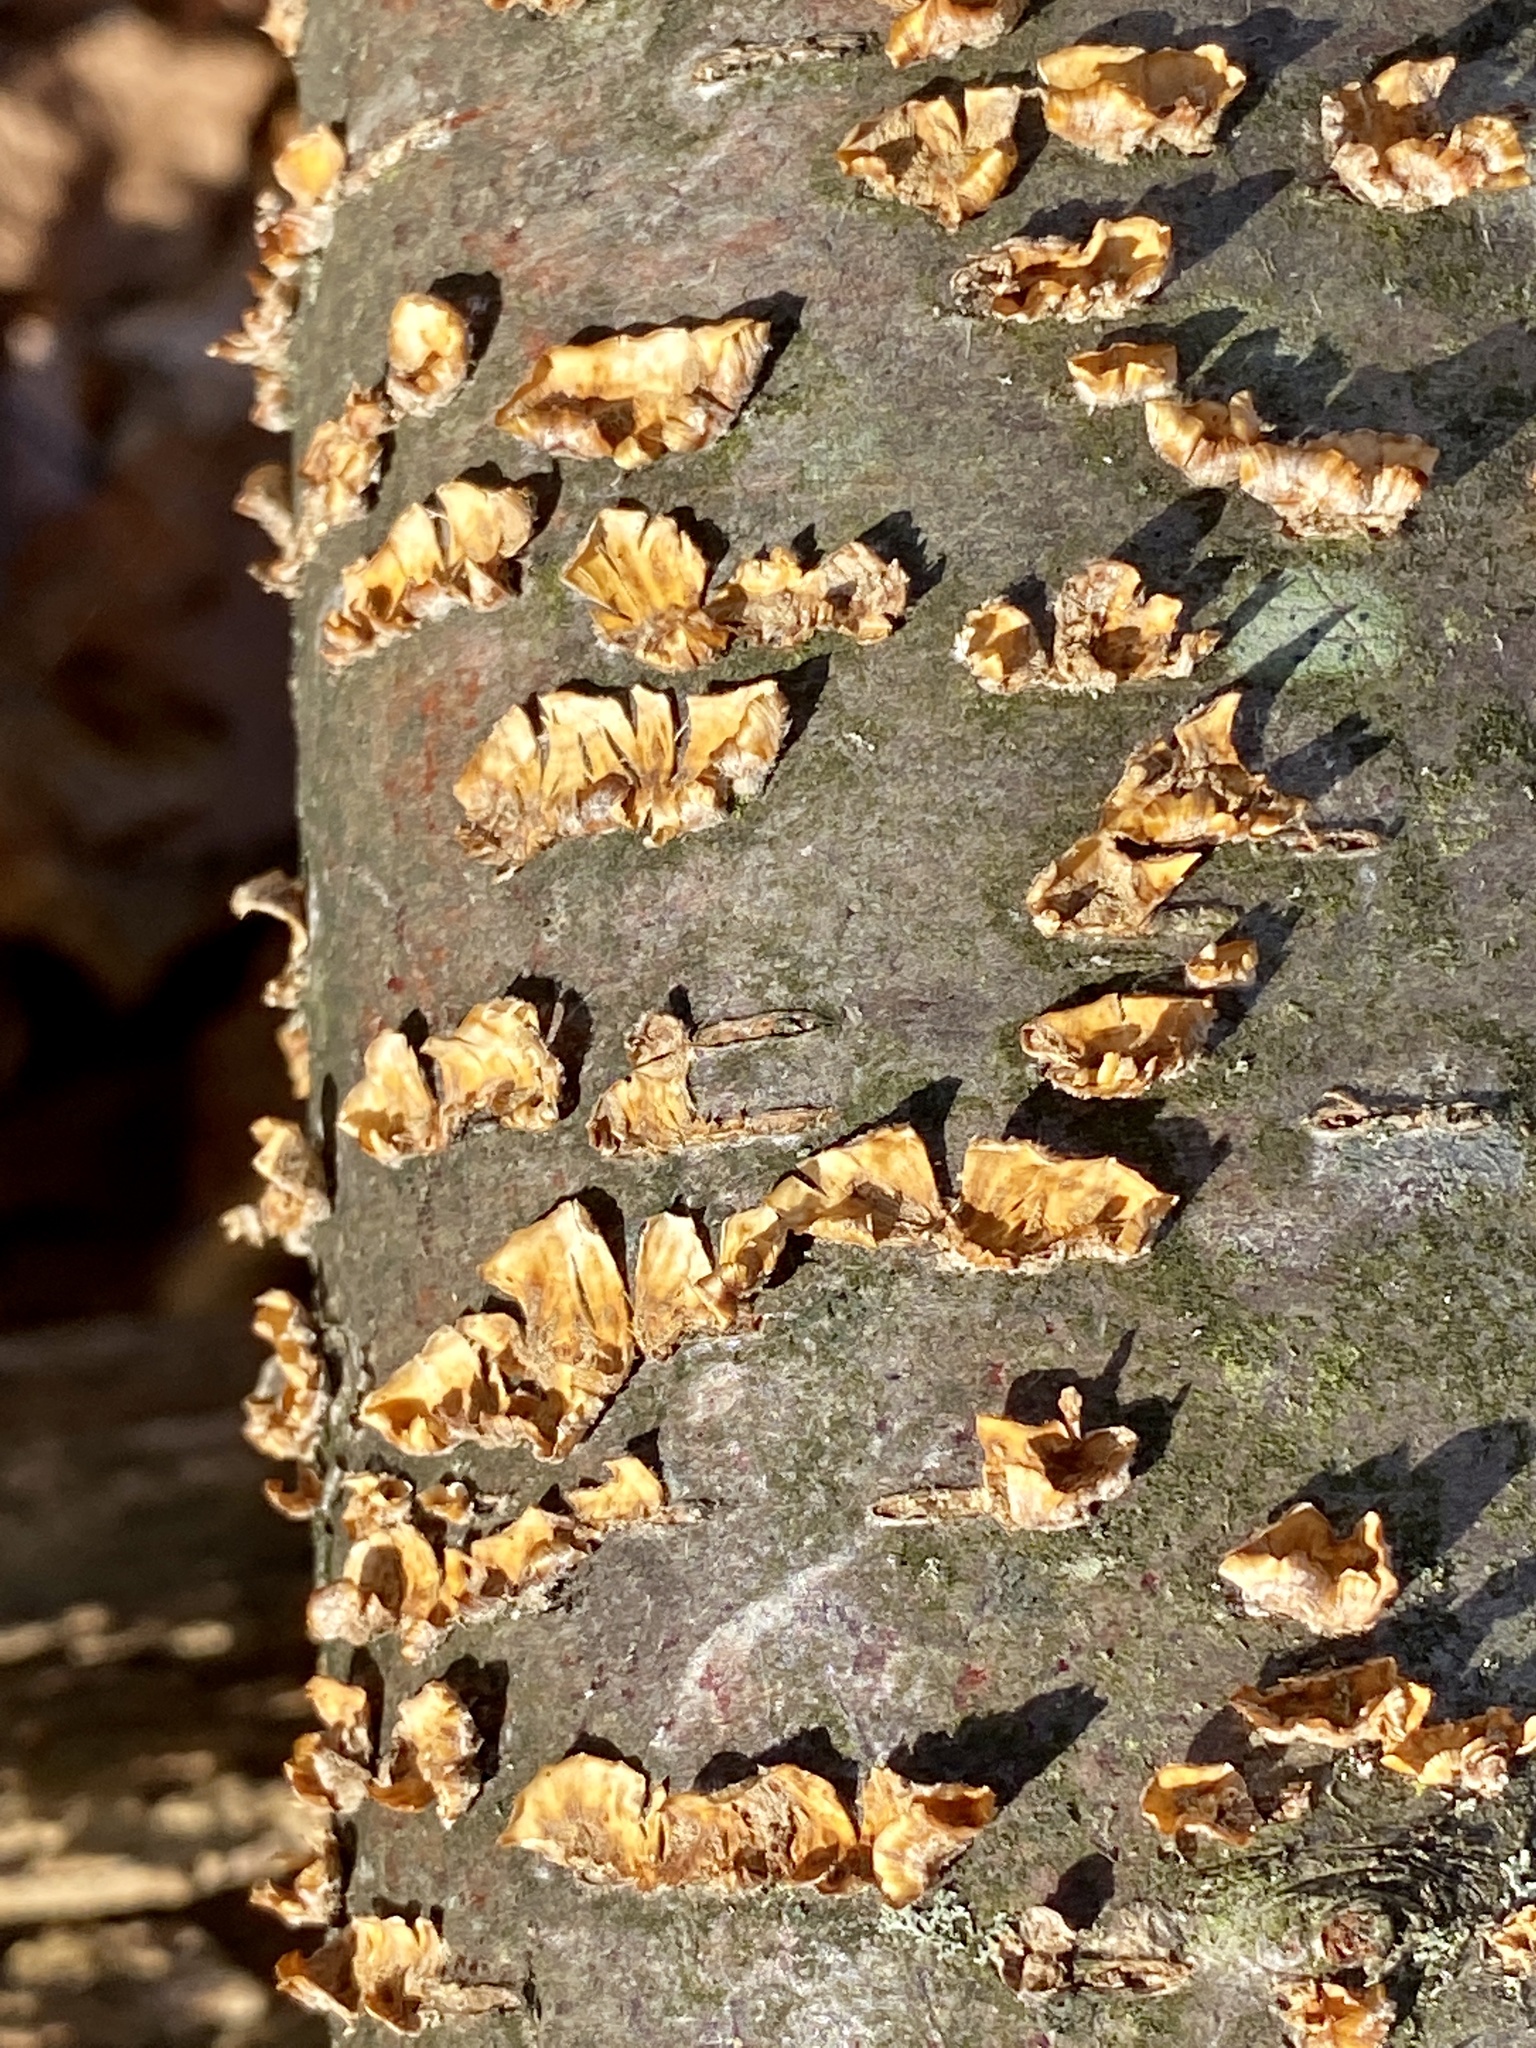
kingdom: Fungi
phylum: Basidiomycota
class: Agaricomycetes
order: Russulales
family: Stereaceae
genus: Stereum
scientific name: Stereum complicatum
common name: Crowded parchment
